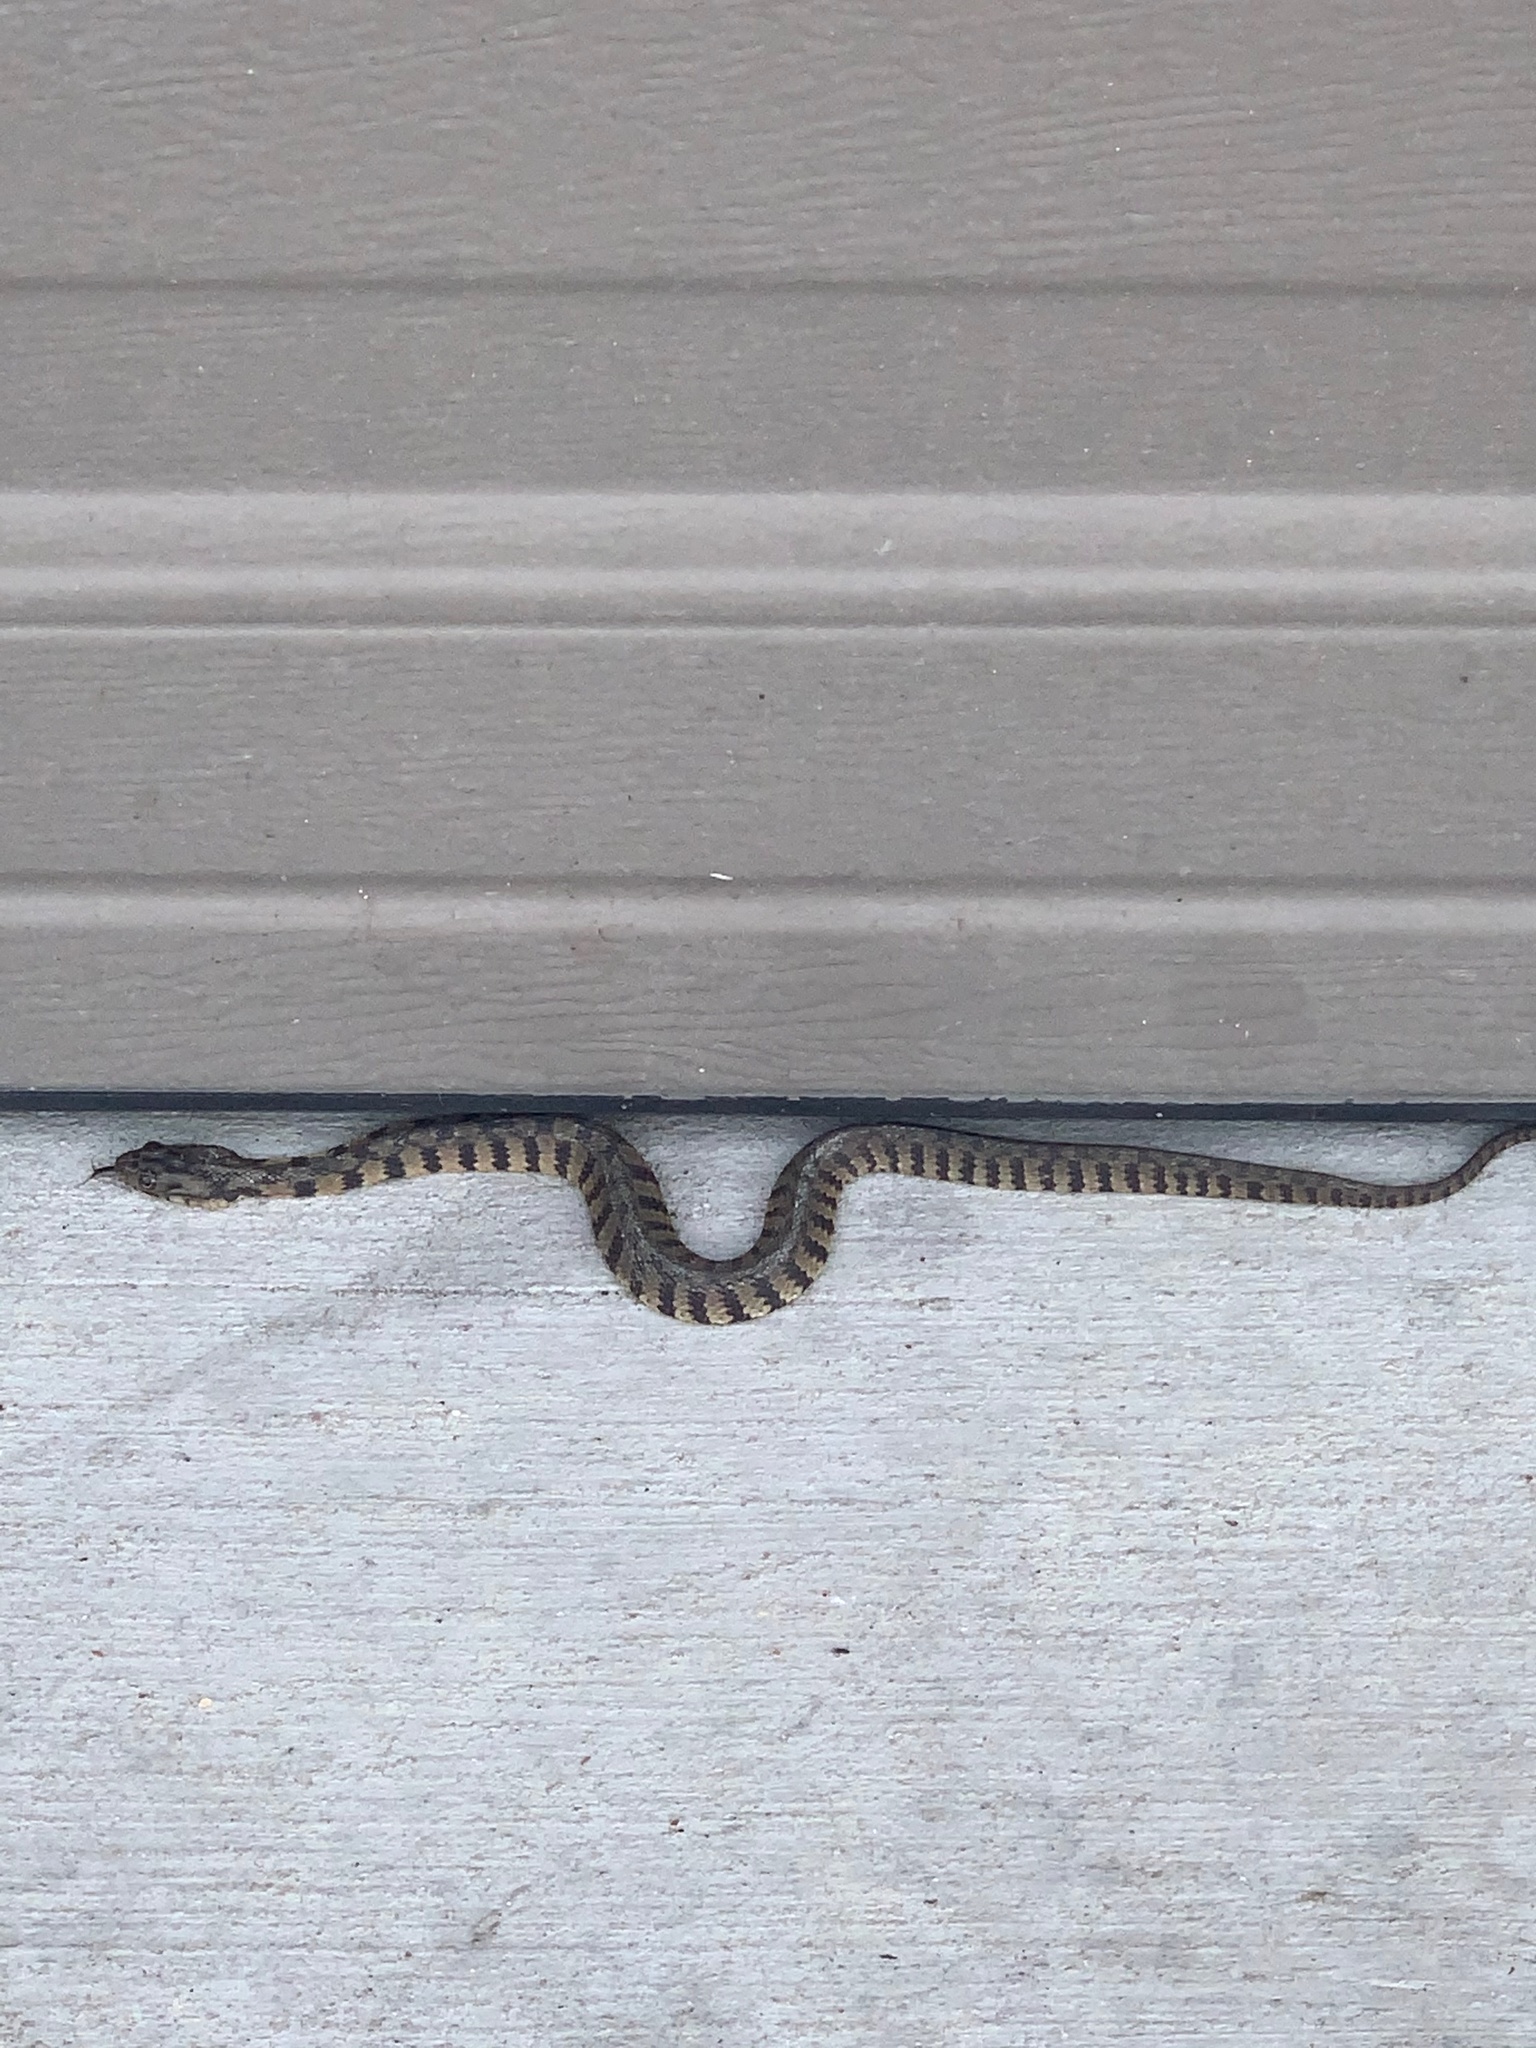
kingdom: Animalia
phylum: Chordata
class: Squamata
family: Colubridae
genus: Nerodia
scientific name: Nerodia rhombifer
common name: Diamondback water snake
